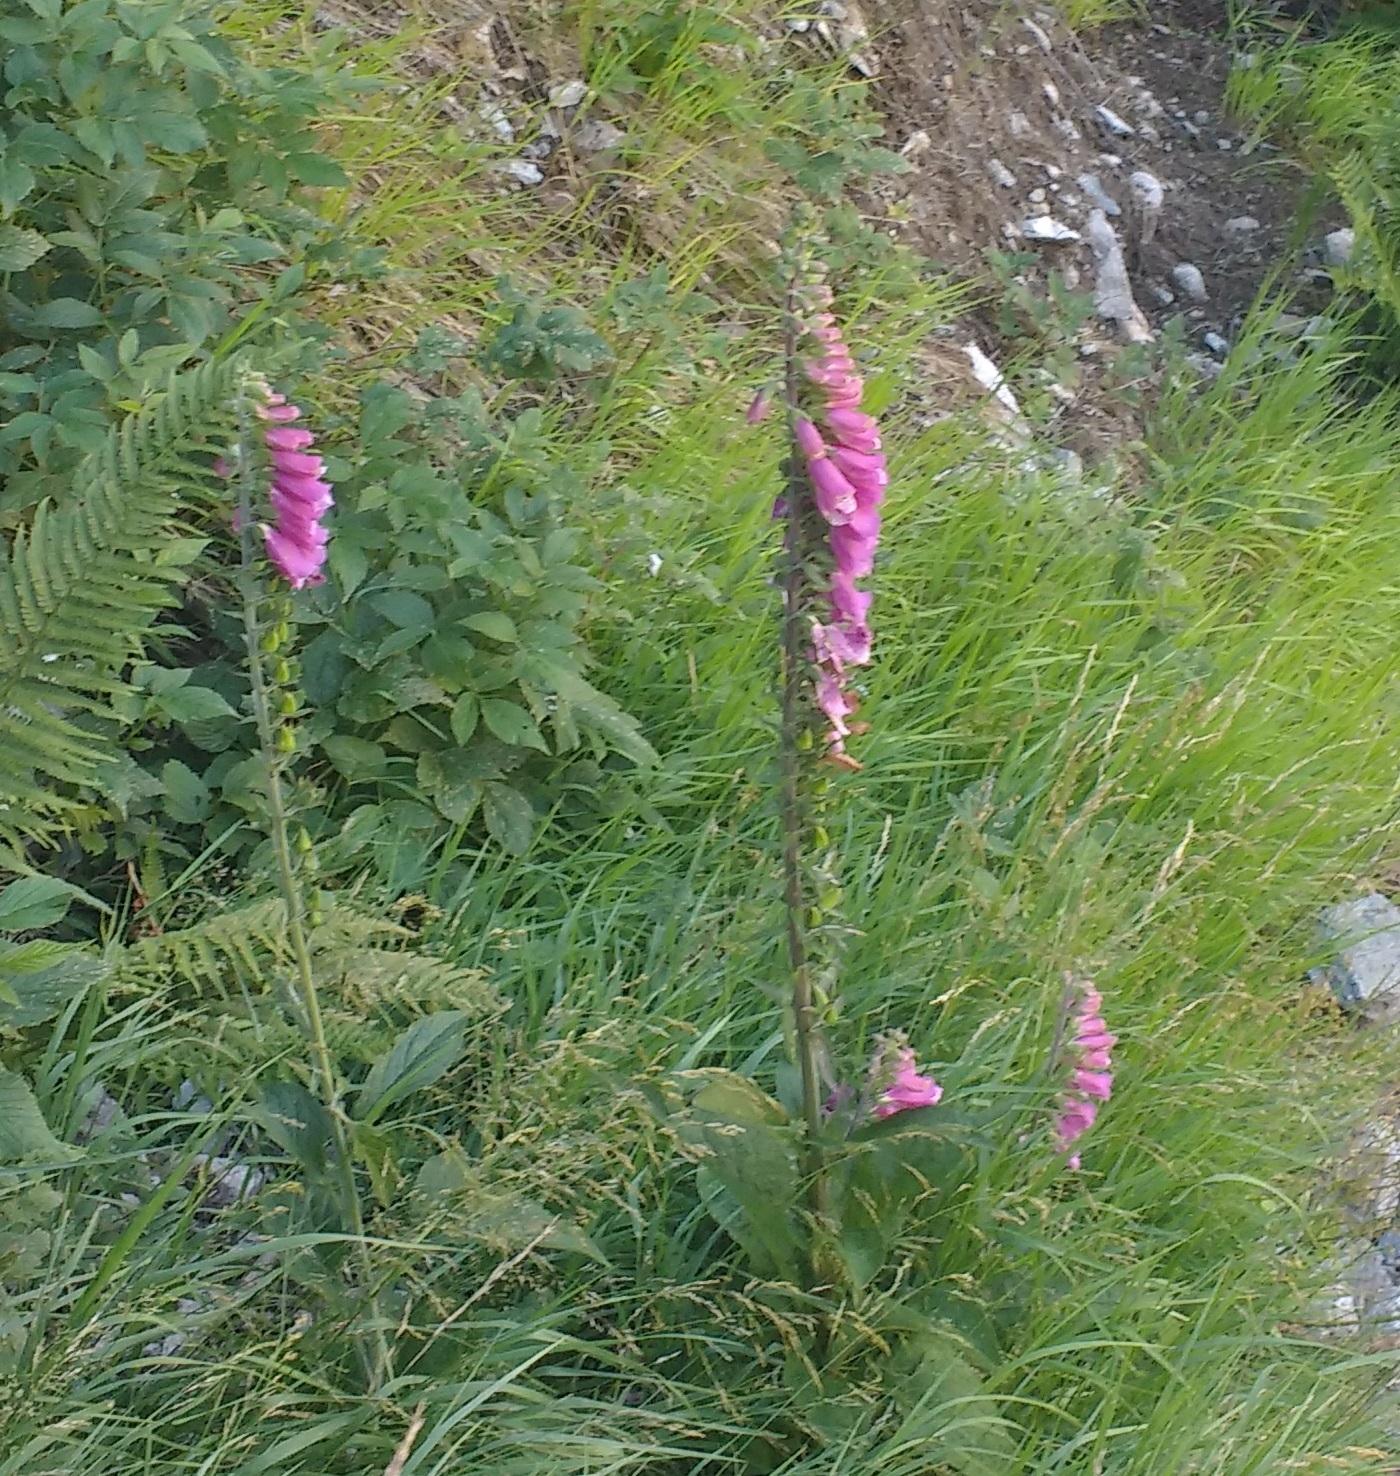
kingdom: Plantae
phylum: Tracheophyta
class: Magnoliopsida
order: Lamiales
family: Plantaginaceae
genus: Digitalis
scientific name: Digitalis purpurea
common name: Foxglove
